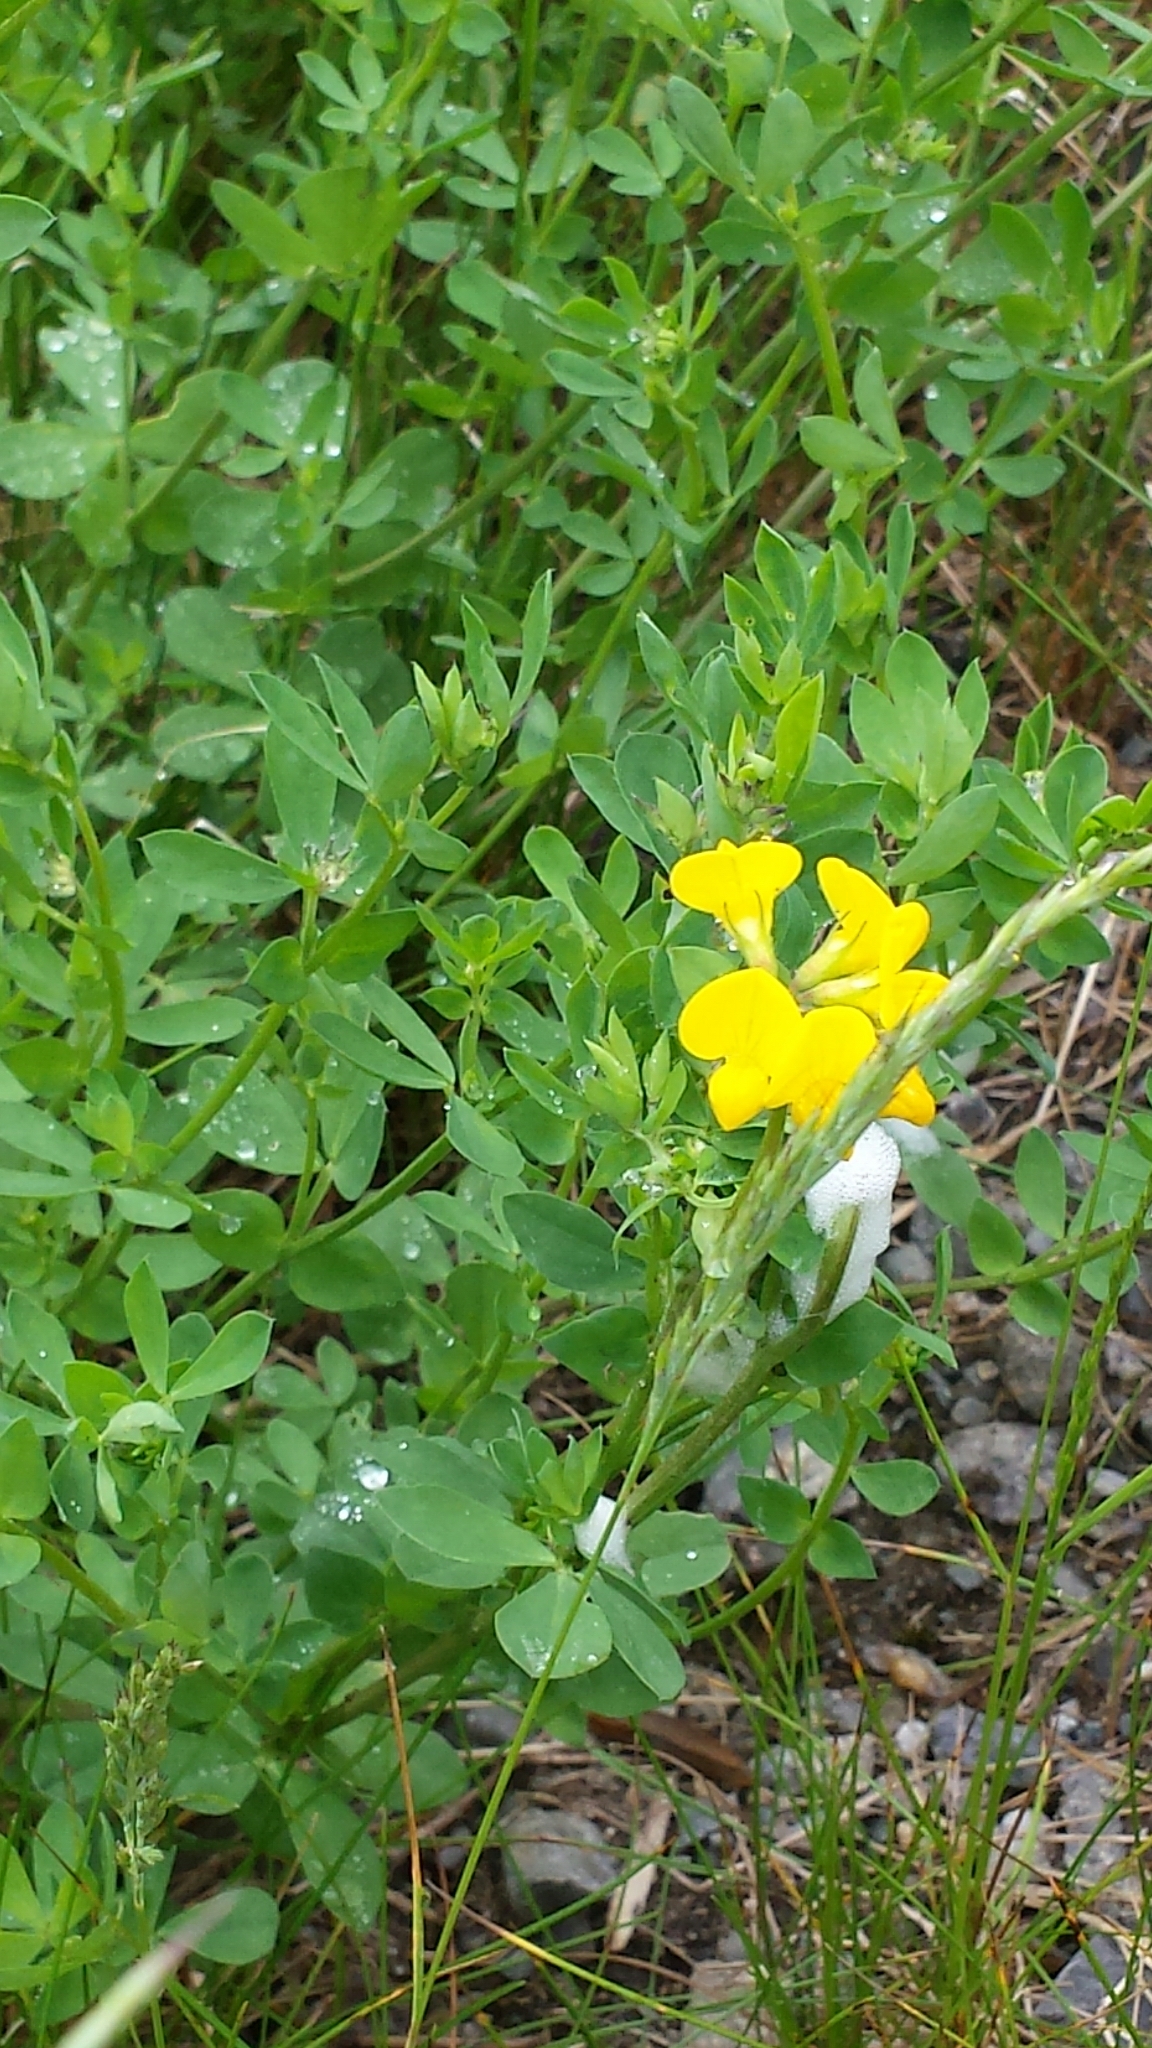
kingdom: Plantae
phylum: Tracheophyta
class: Magnoliopsida
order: Fabales
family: Fabaceae
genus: Lotus
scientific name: Lotus corniculatus
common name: Common bird's-foot-trefoil
